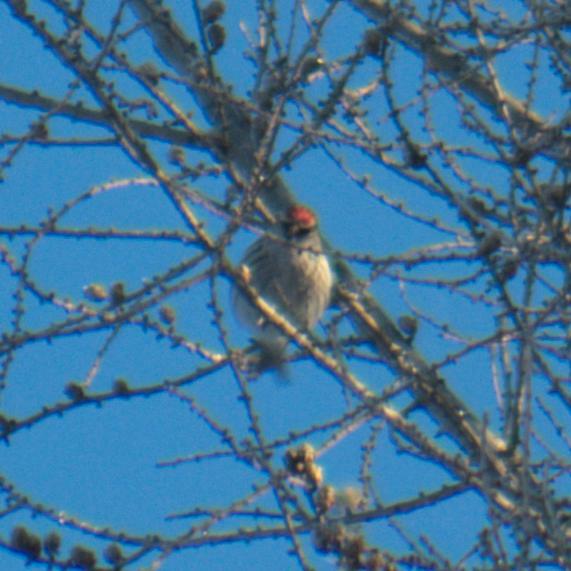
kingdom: Animalia
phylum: Chordata
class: Aves
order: Passeriformes
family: Fringillidae
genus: Acanthis
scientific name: Acanthis flammea
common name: Common redpoll
